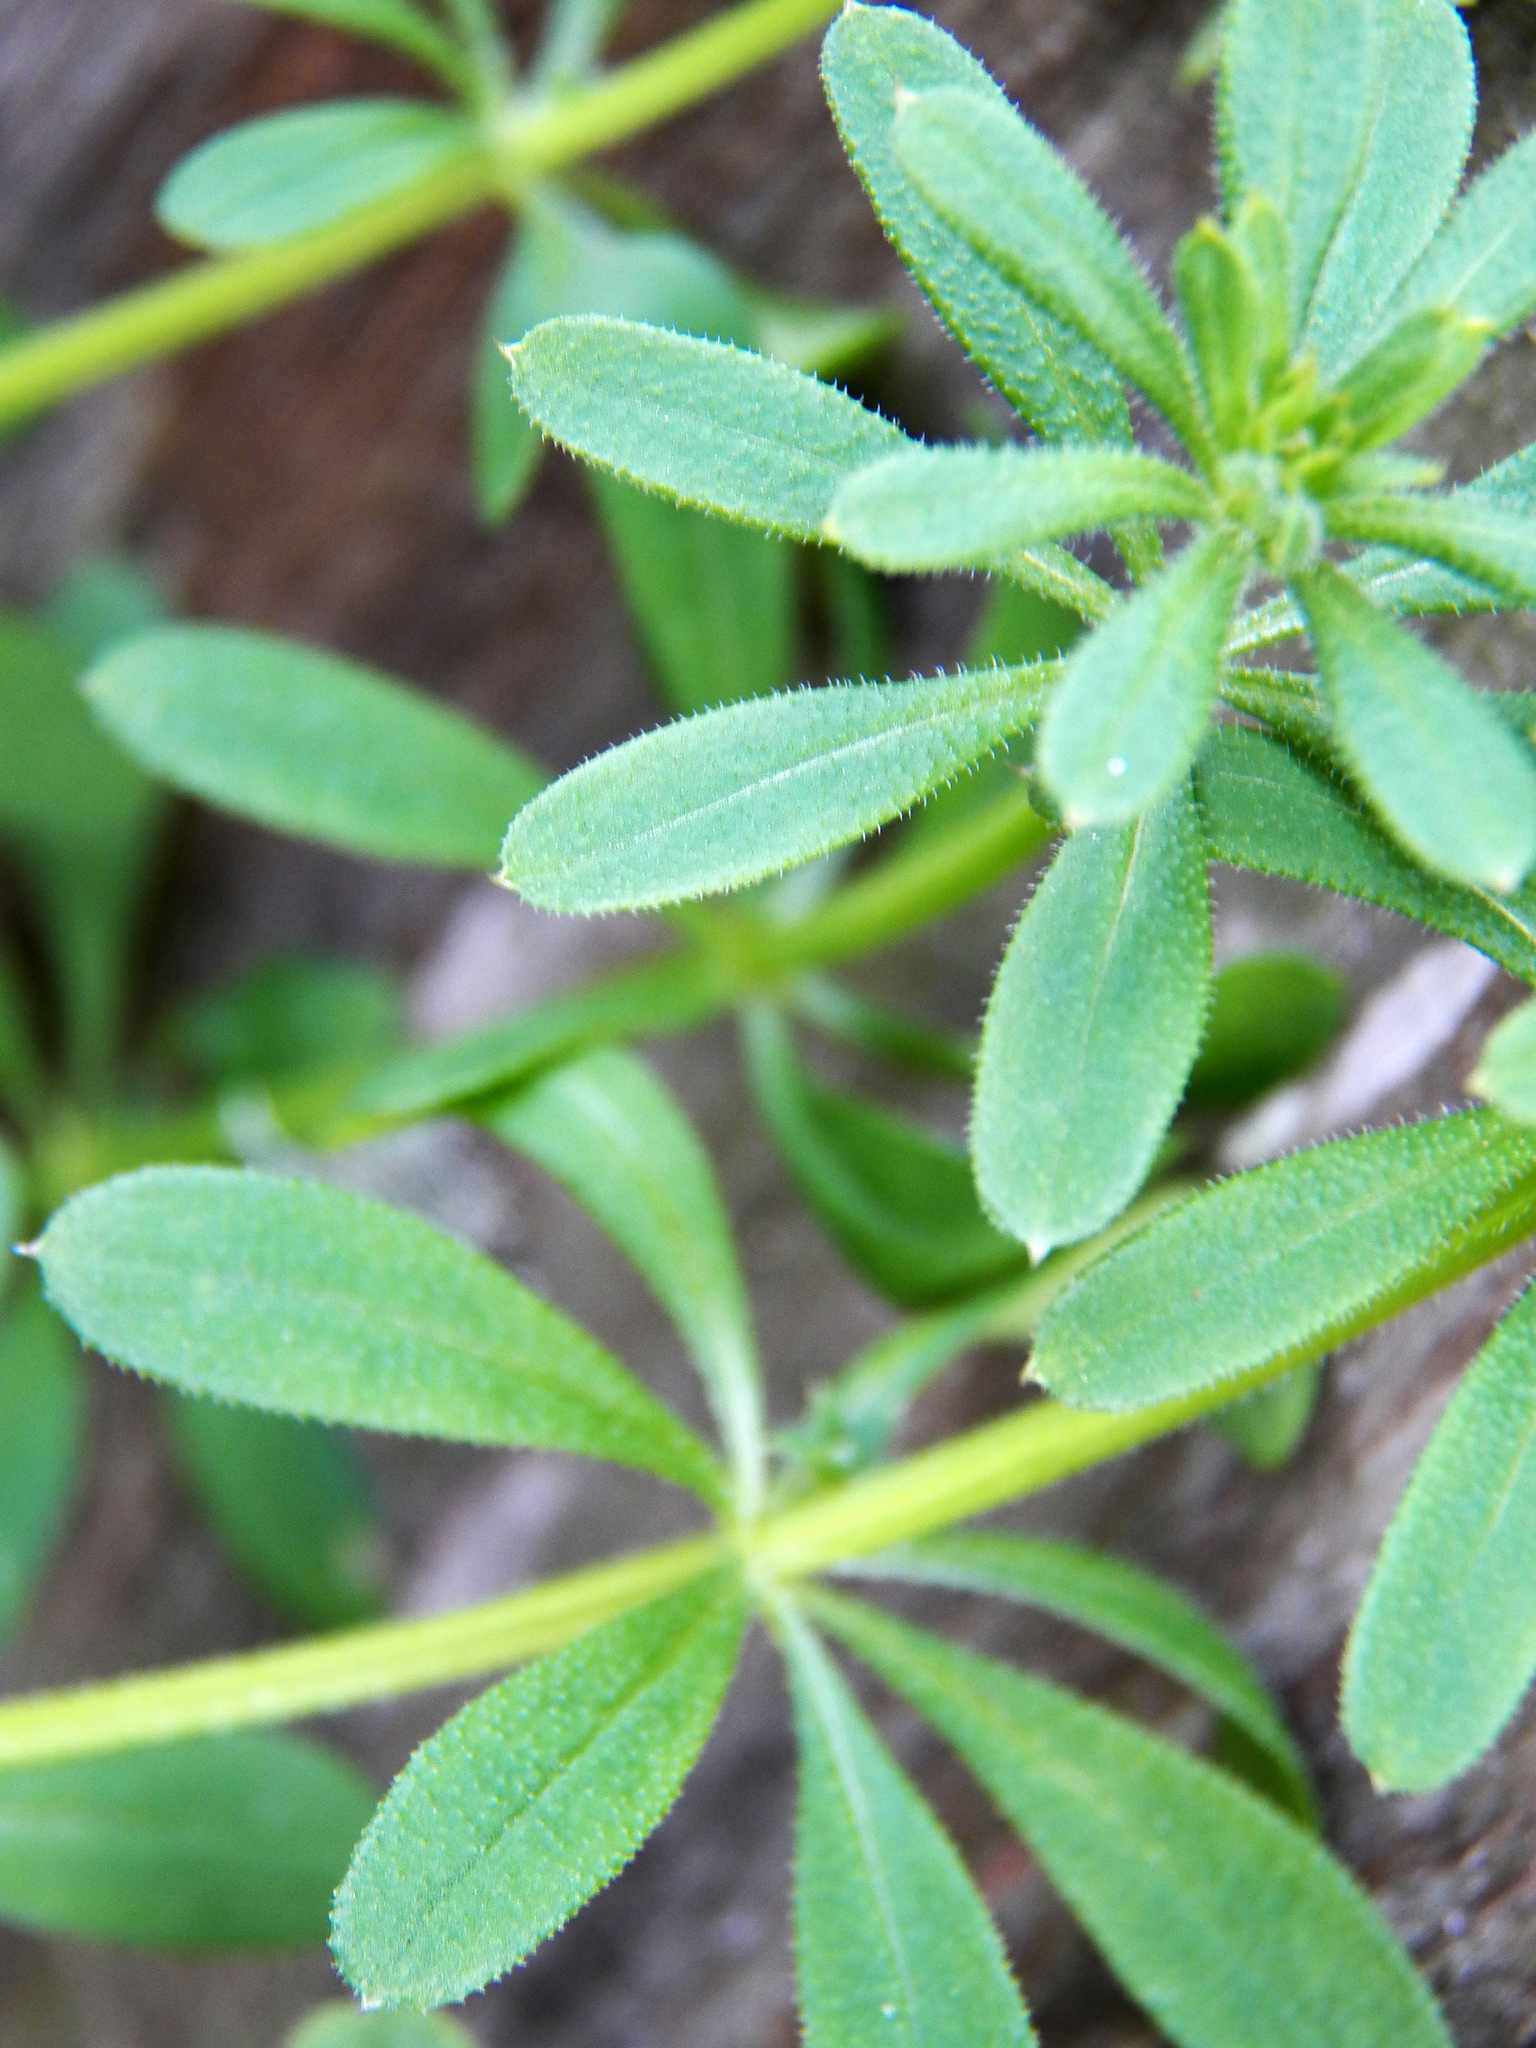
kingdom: Plantae
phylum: Tracheophyta
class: Magnoliopsida
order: Gentianales
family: Rubiaceae
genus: Galium
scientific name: Galium aparine
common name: Cleavers
